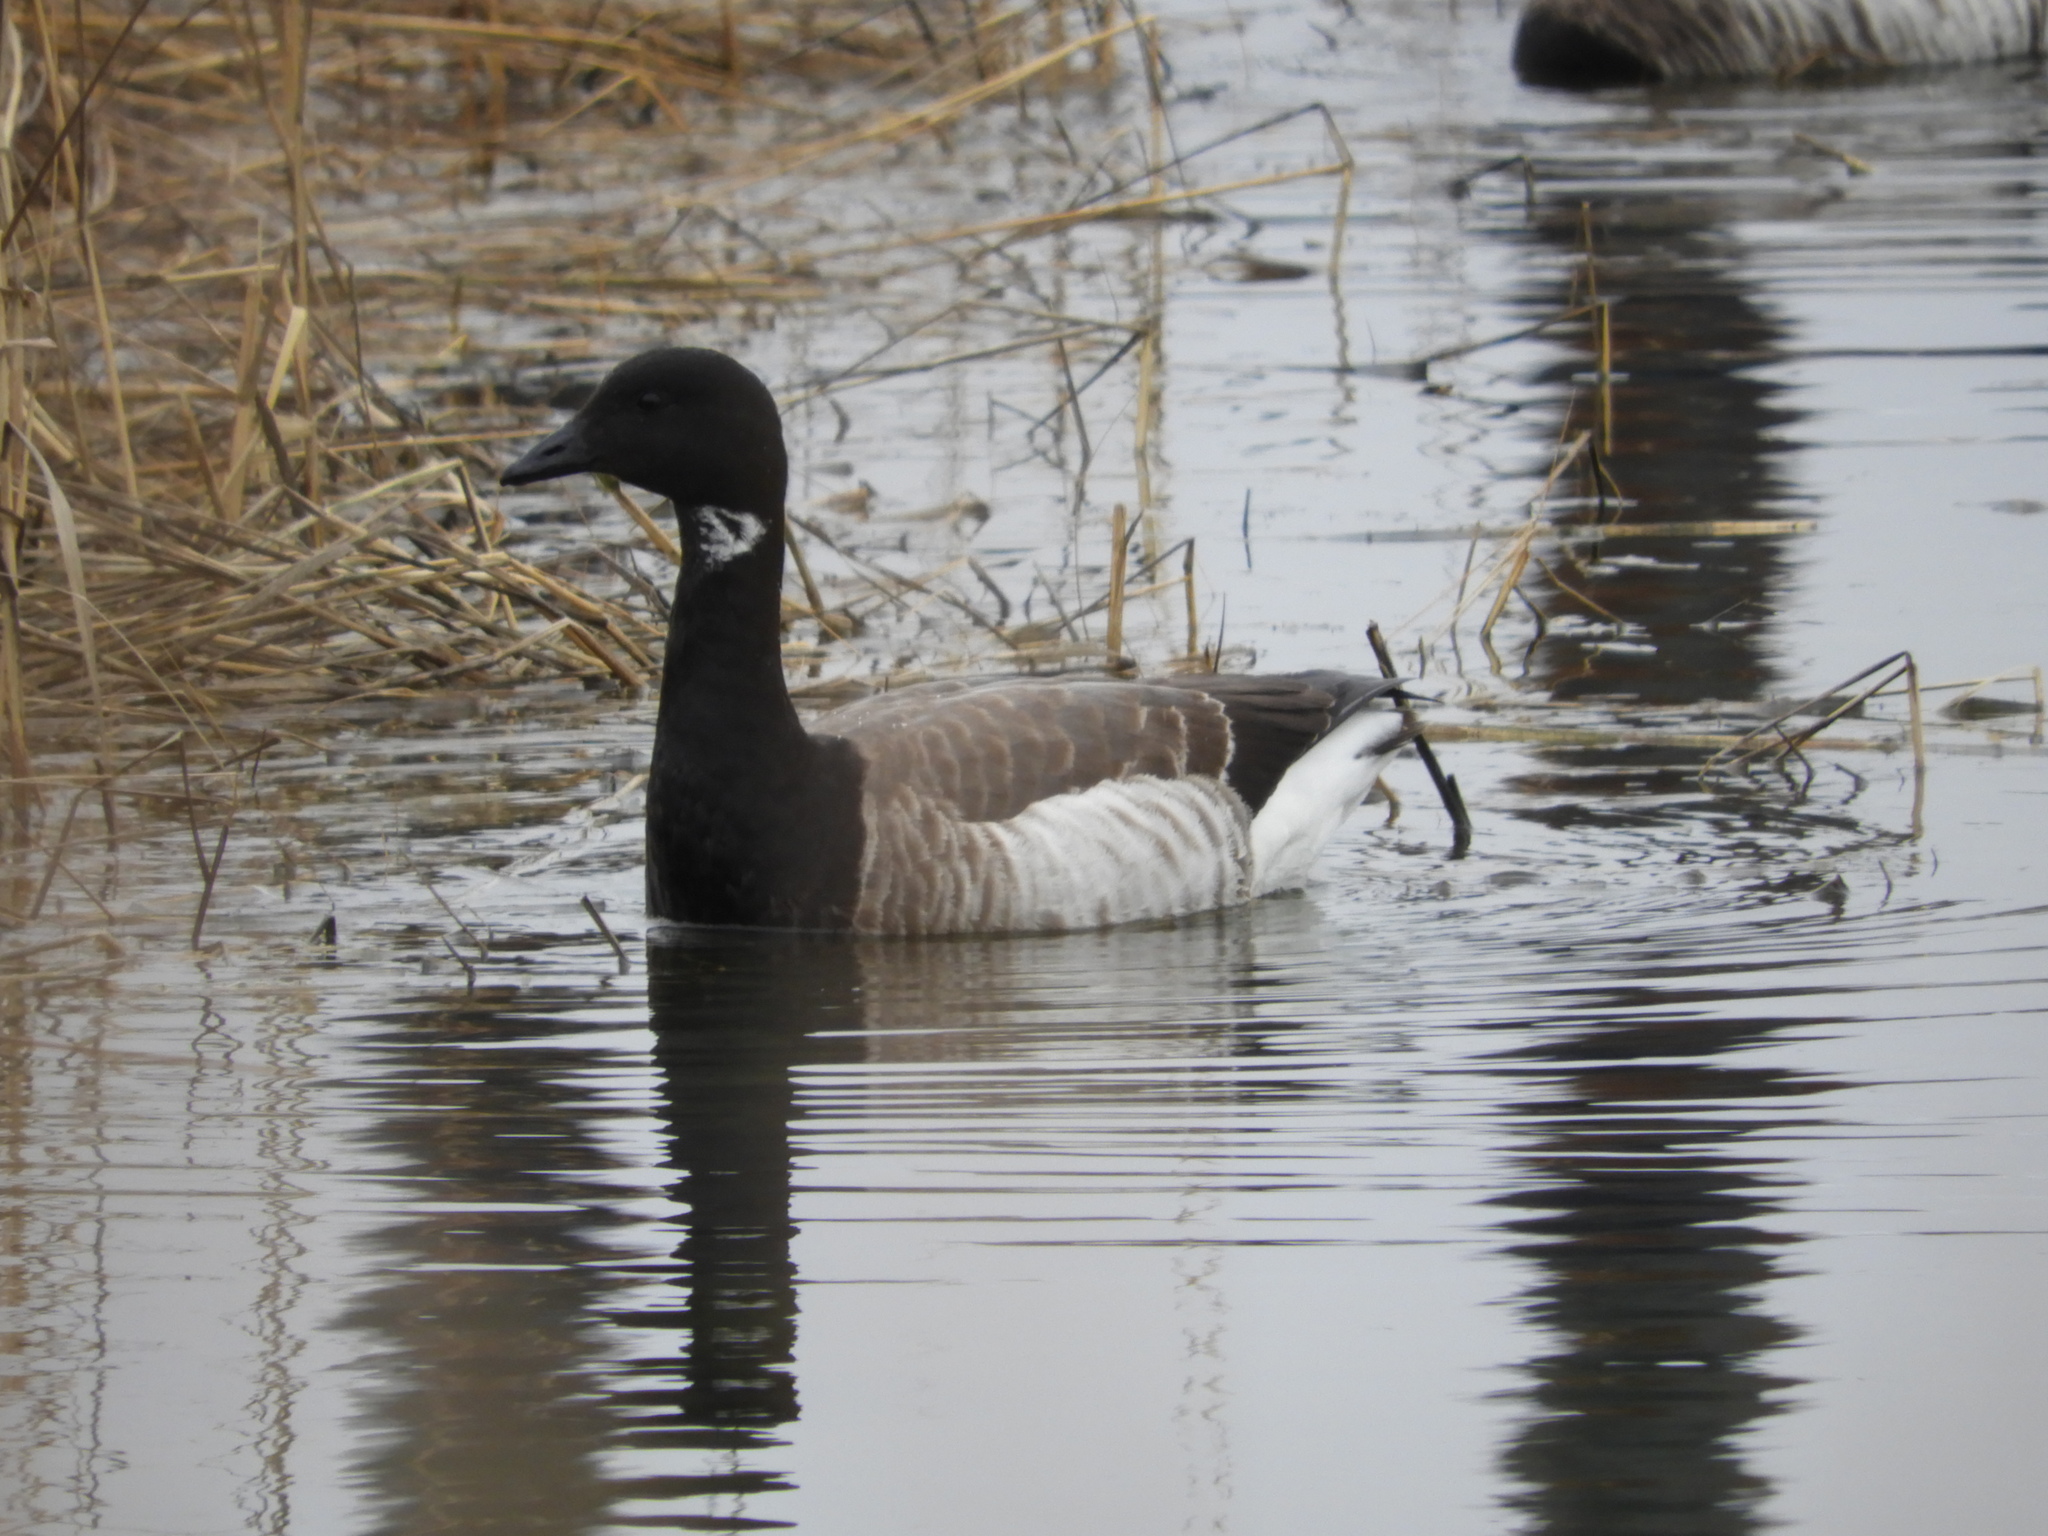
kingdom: Animalia
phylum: Chordata
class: Aves
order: Anseriformes
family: Anatidae
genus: Branta
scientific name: Branta bernicla
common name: Brant goose
